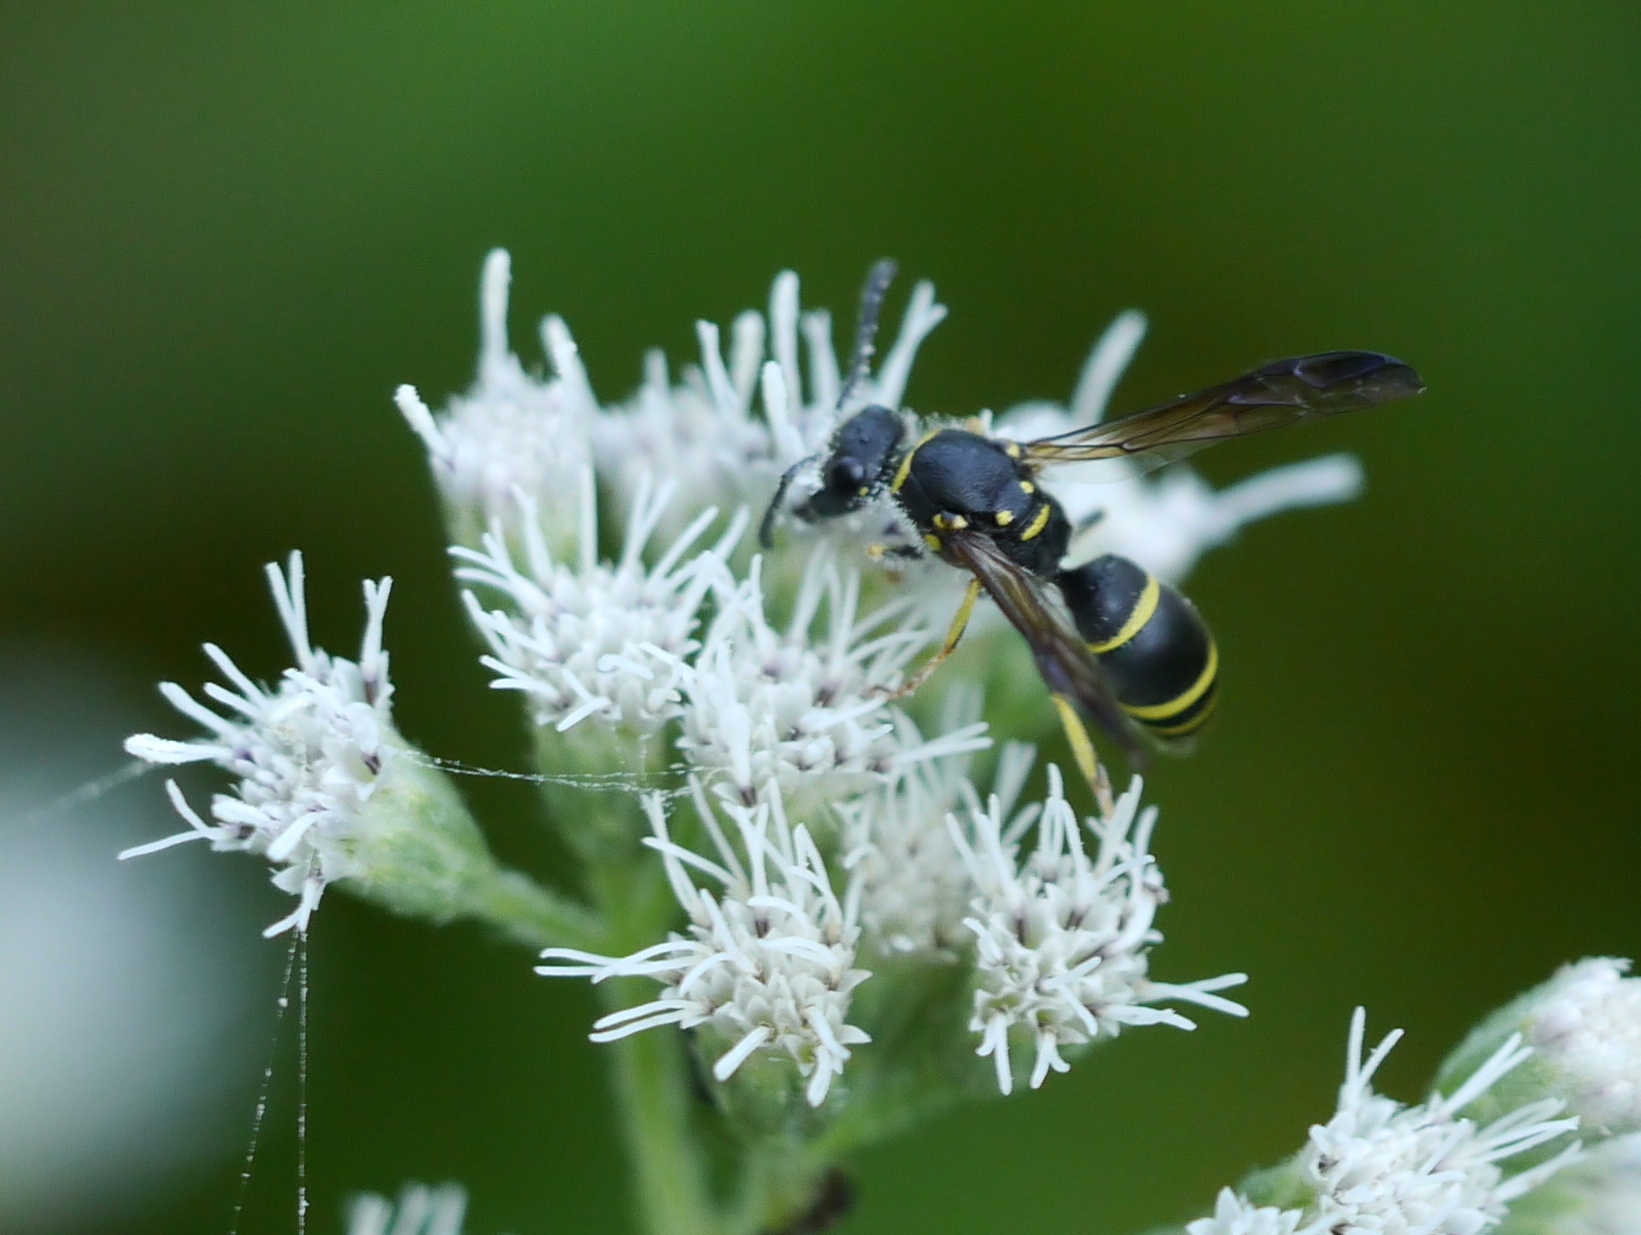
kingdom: Animalia
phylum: Arthropoda
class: Insecta
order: Hymenoptera
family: Vespidae
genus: Ancistrocerus
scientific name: Ancistrocerus adiabatus
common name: Bramble mason wasp
